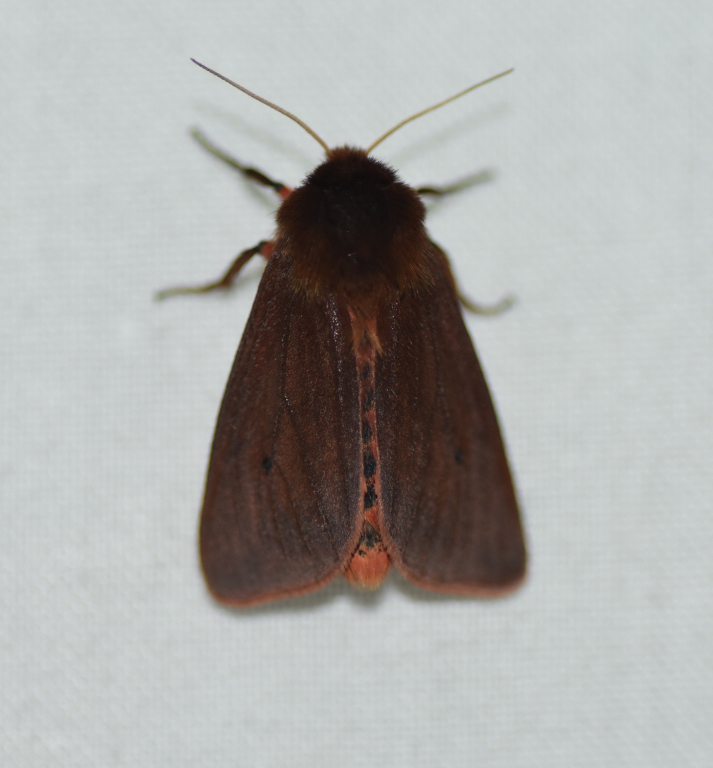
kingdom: Animalia
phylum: Arthropoda
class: Insecta
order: Lepidoptera
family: Erebidae
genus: Phragmatobia
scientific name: Phragmatobia fuliginosa
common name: Ruby tiger
